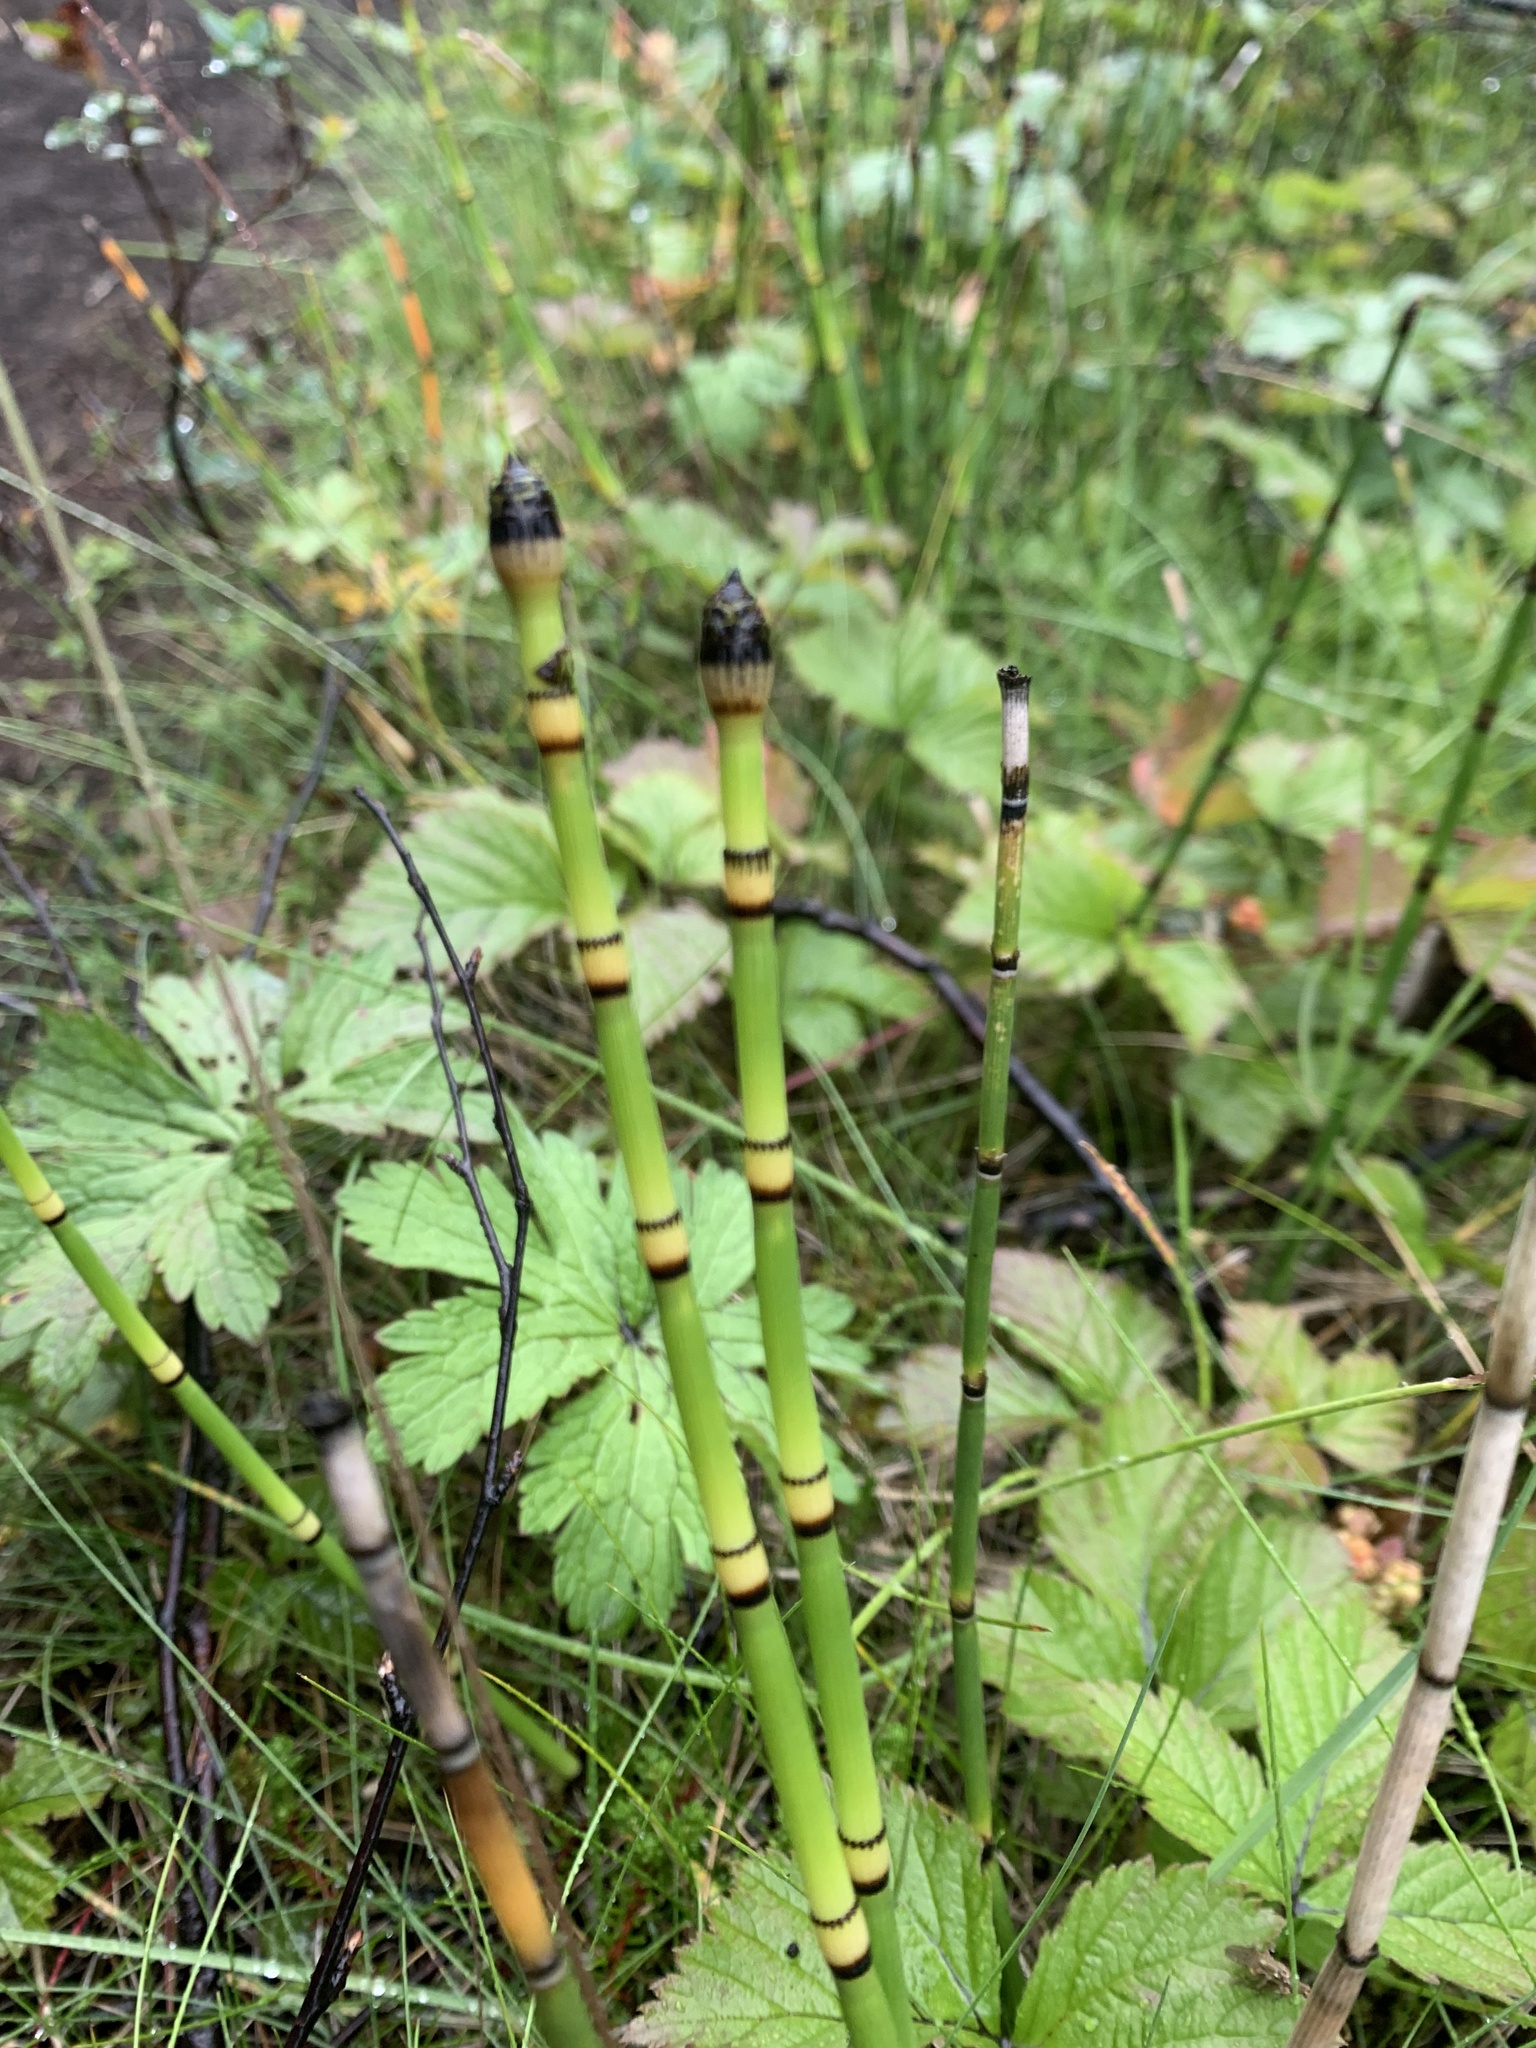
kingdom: Plantae
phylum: Tracheophyta
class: Polypodiopsida
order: Equisetales
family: Equisetaceae
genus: Equisetum
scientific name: Equisetum hyemale
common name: Rough horsetail
